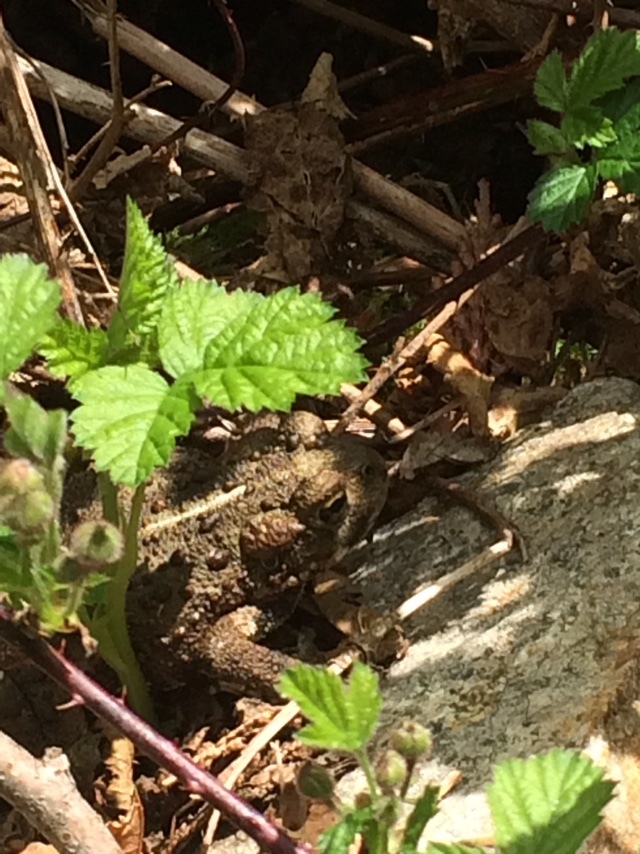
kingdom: Animalia
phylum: Chordata
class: Amphibia
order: Anura
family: Bufonidae
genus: Anaxyrus
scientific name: Anaxyrus boreas
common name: Western toad
